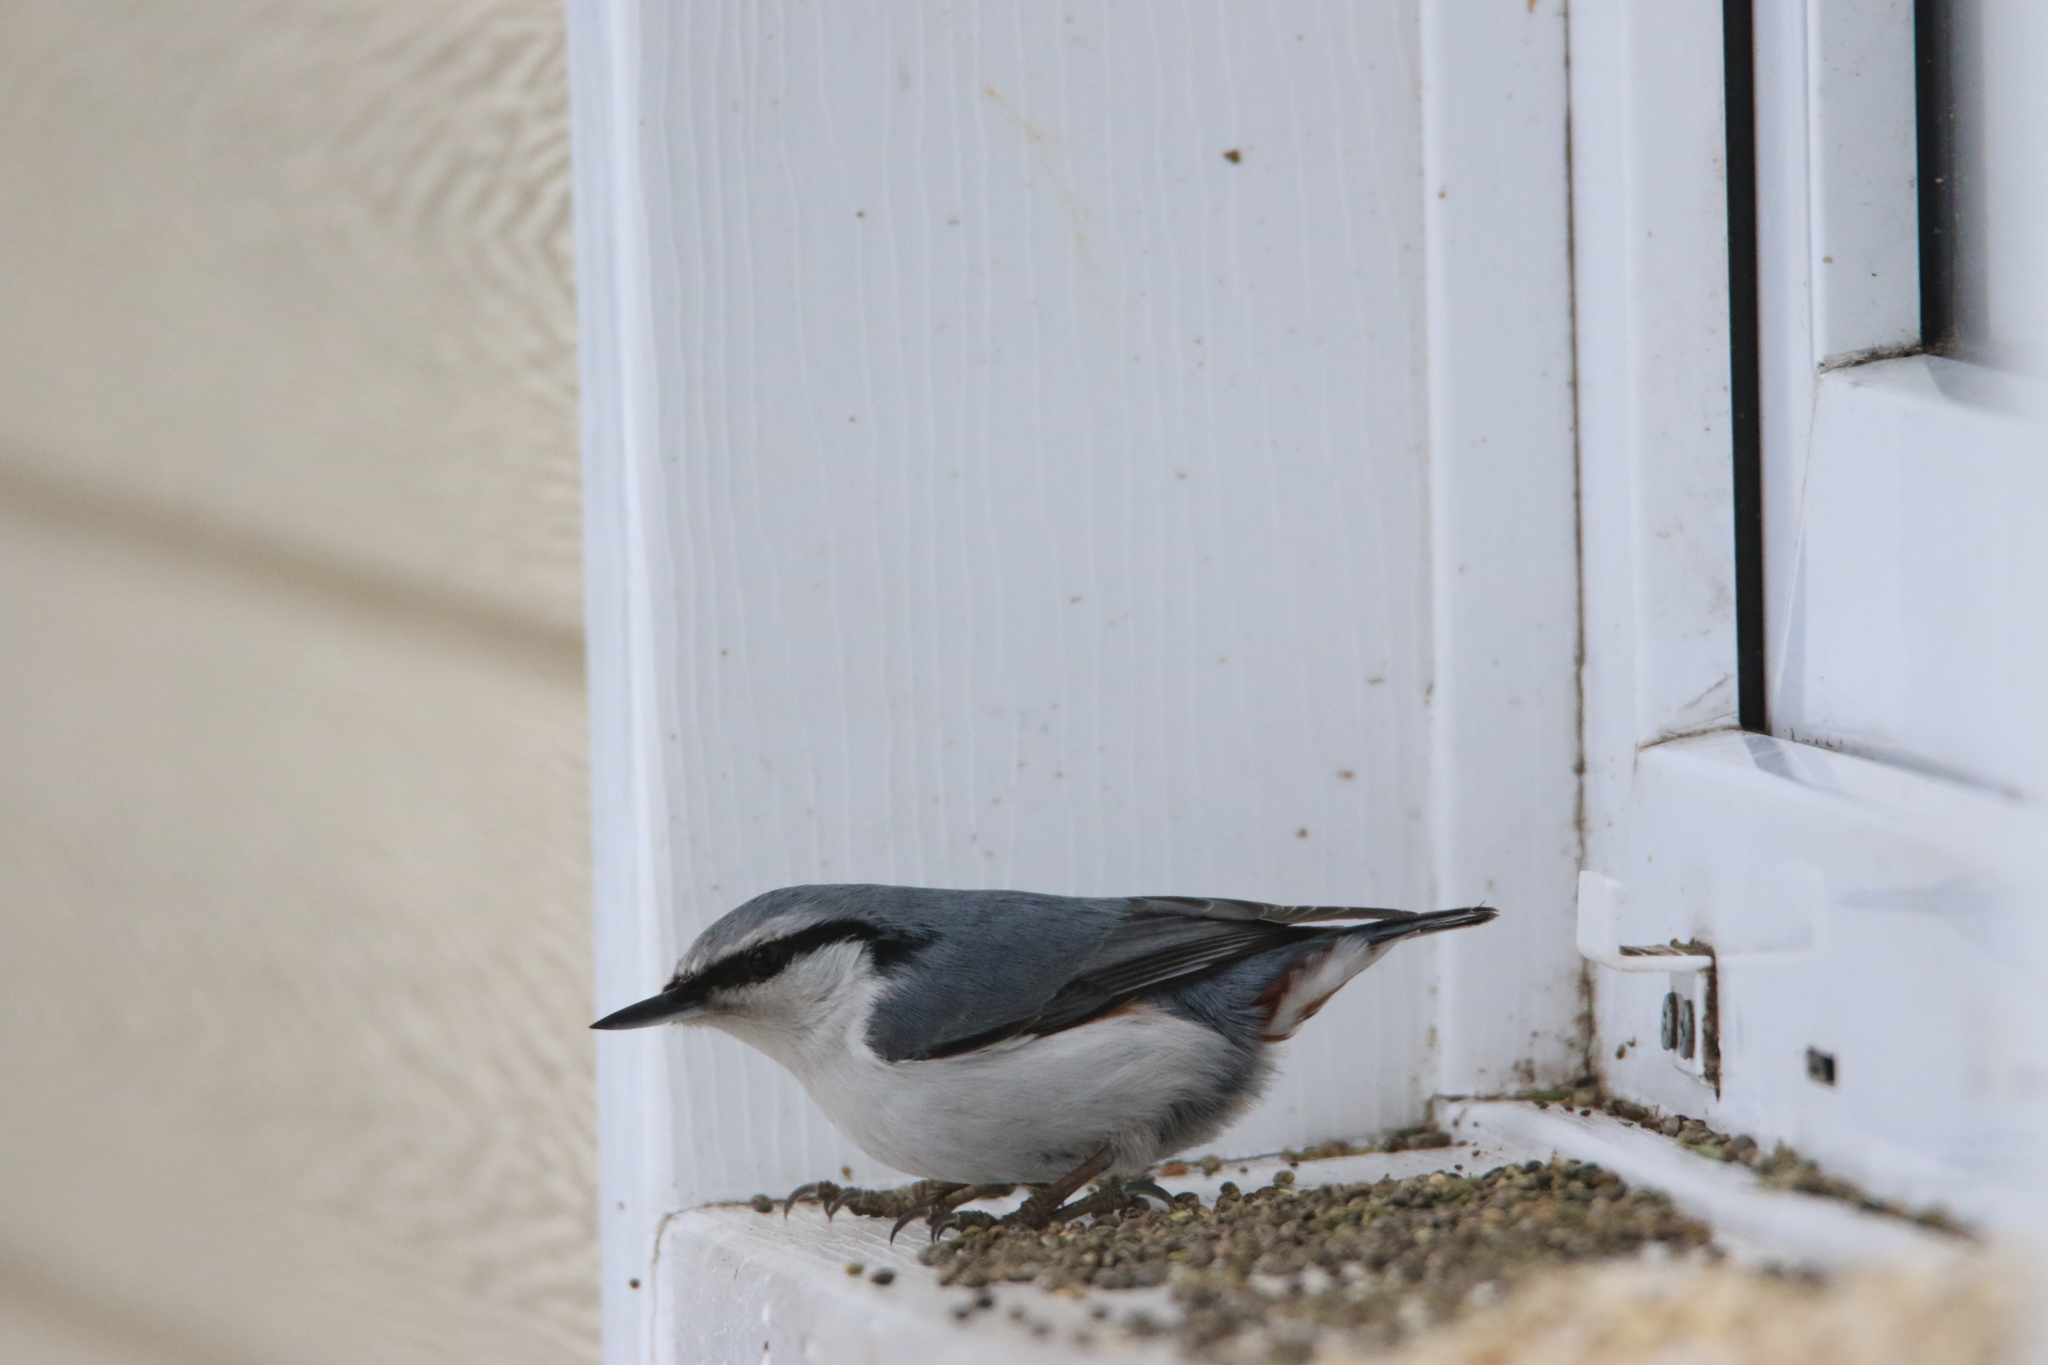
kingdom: Animalia
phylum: Chordata
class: Aves
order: Passeriformes
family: Sittidae
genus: Sitta
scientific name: Sitta europaea
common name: Eurasian nuthatch
